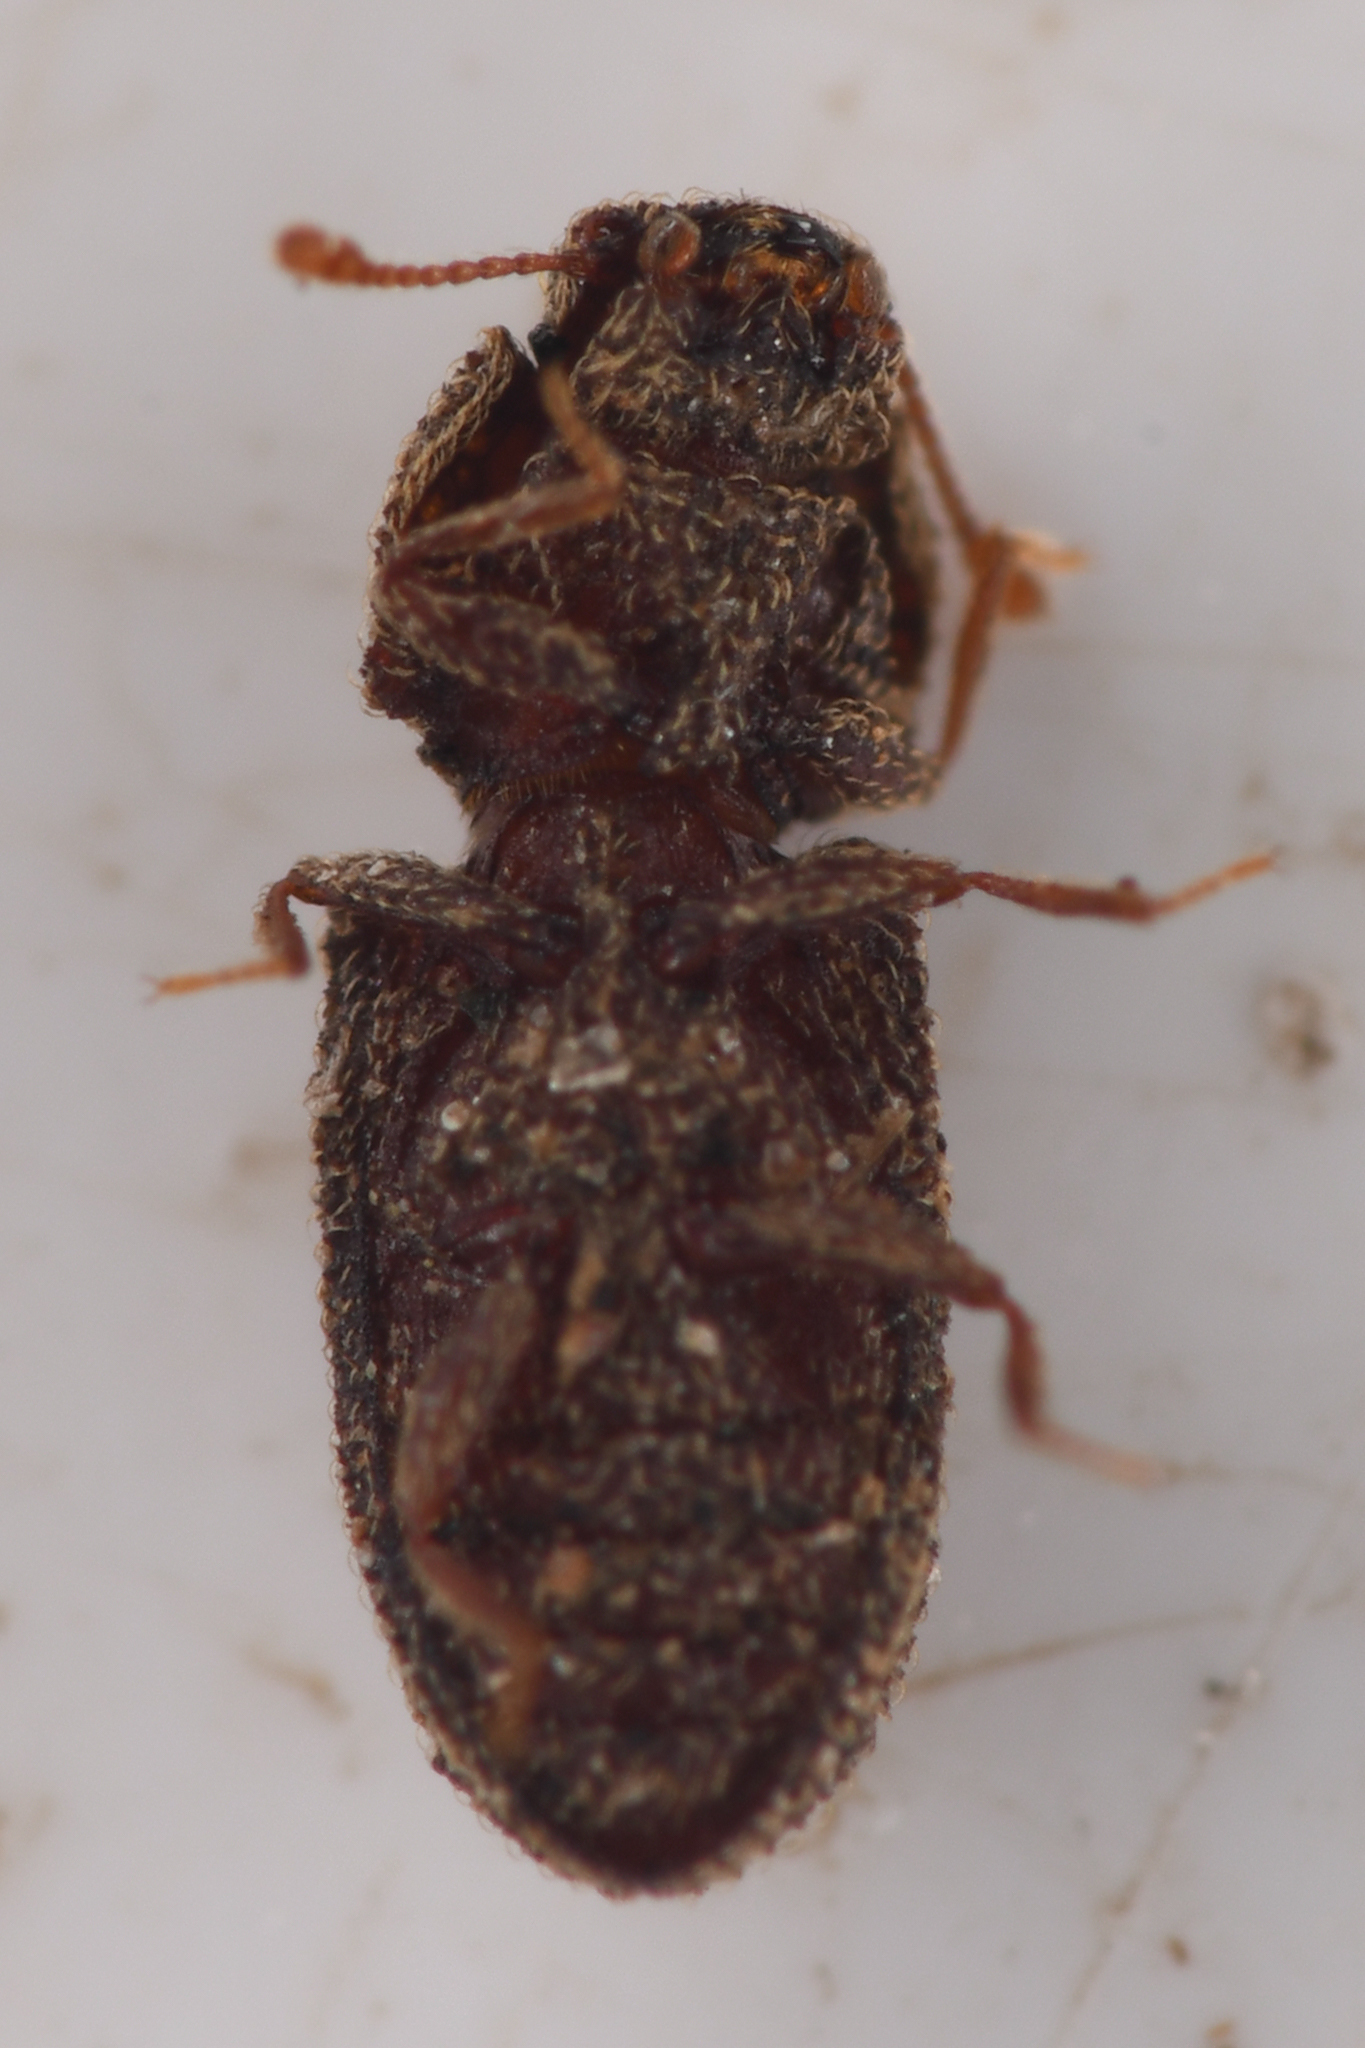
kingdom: Animalia
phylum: Arthropoda
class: Insecta
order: Coleoptera
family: Zopheridae
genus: Megataphrus
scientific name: Megataphrus tenuicornis
